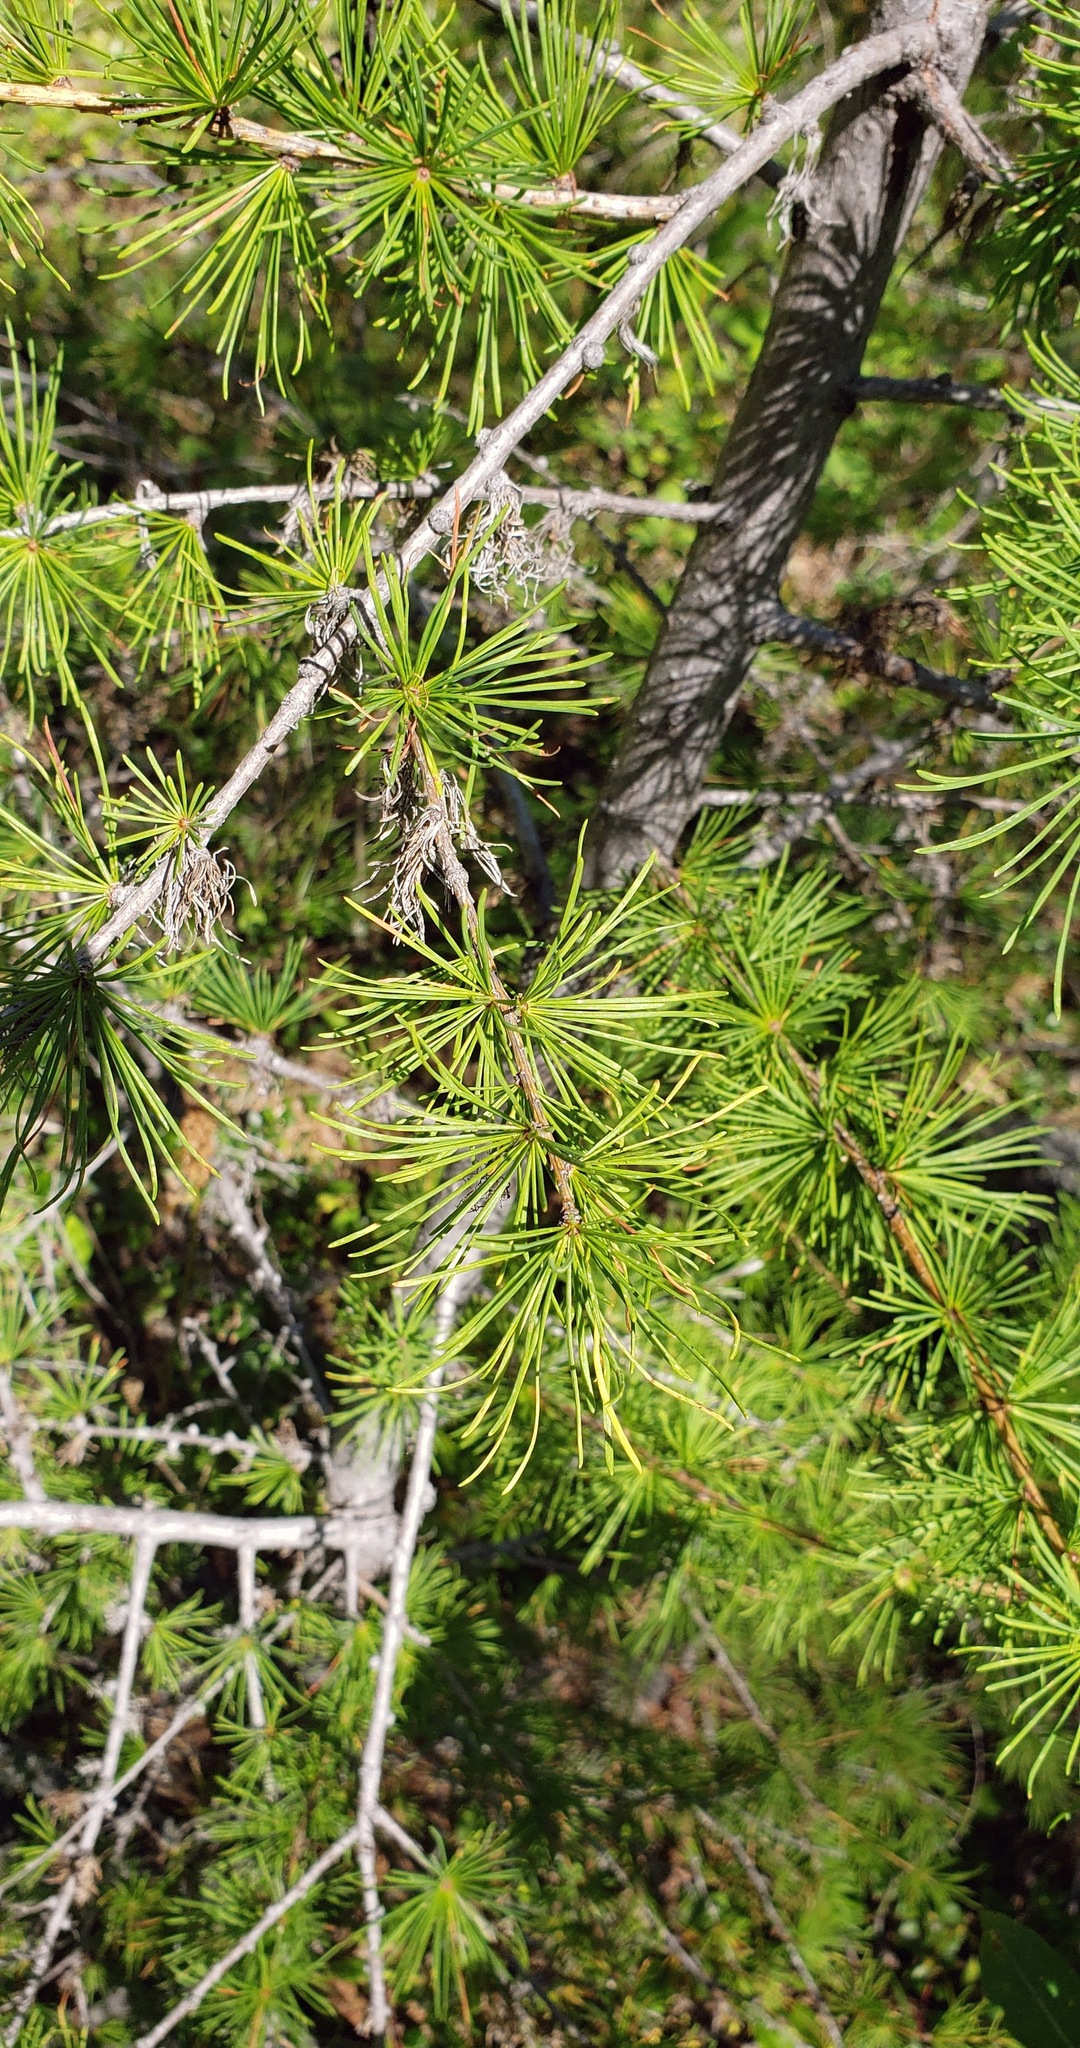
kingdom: Plantae
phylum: Tracheophyta
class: Pinopsida
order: Pinales
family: Pinaceae
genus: Larix
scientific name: Larix occidentalis
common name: Western larch
